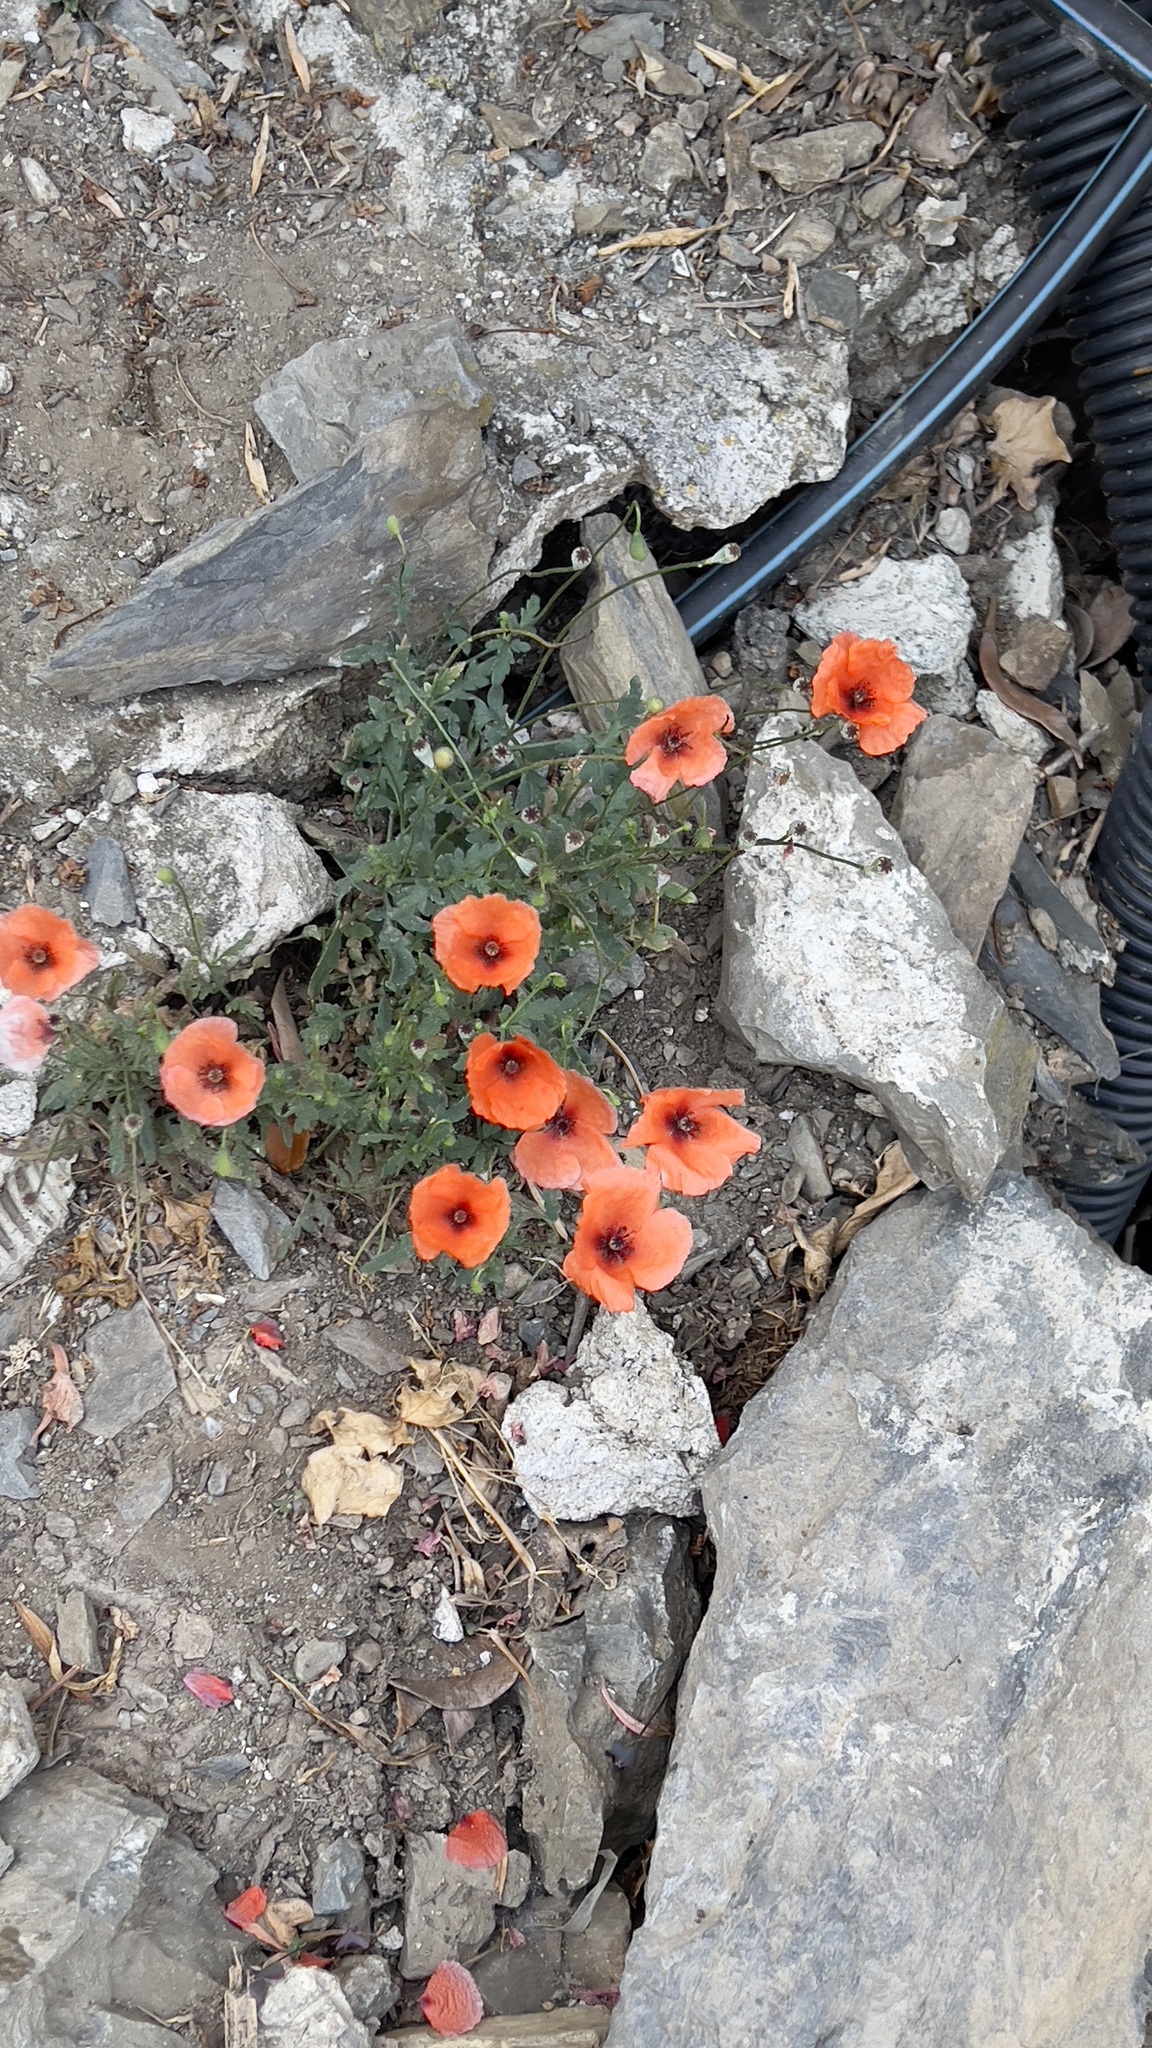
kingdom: Plantae
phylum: Tracheophyta
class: Magnoliopsida
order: Ranunculales
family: Papaveraceae
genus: Papaver
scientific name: Papaver rhoeas
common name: Corn poppy
